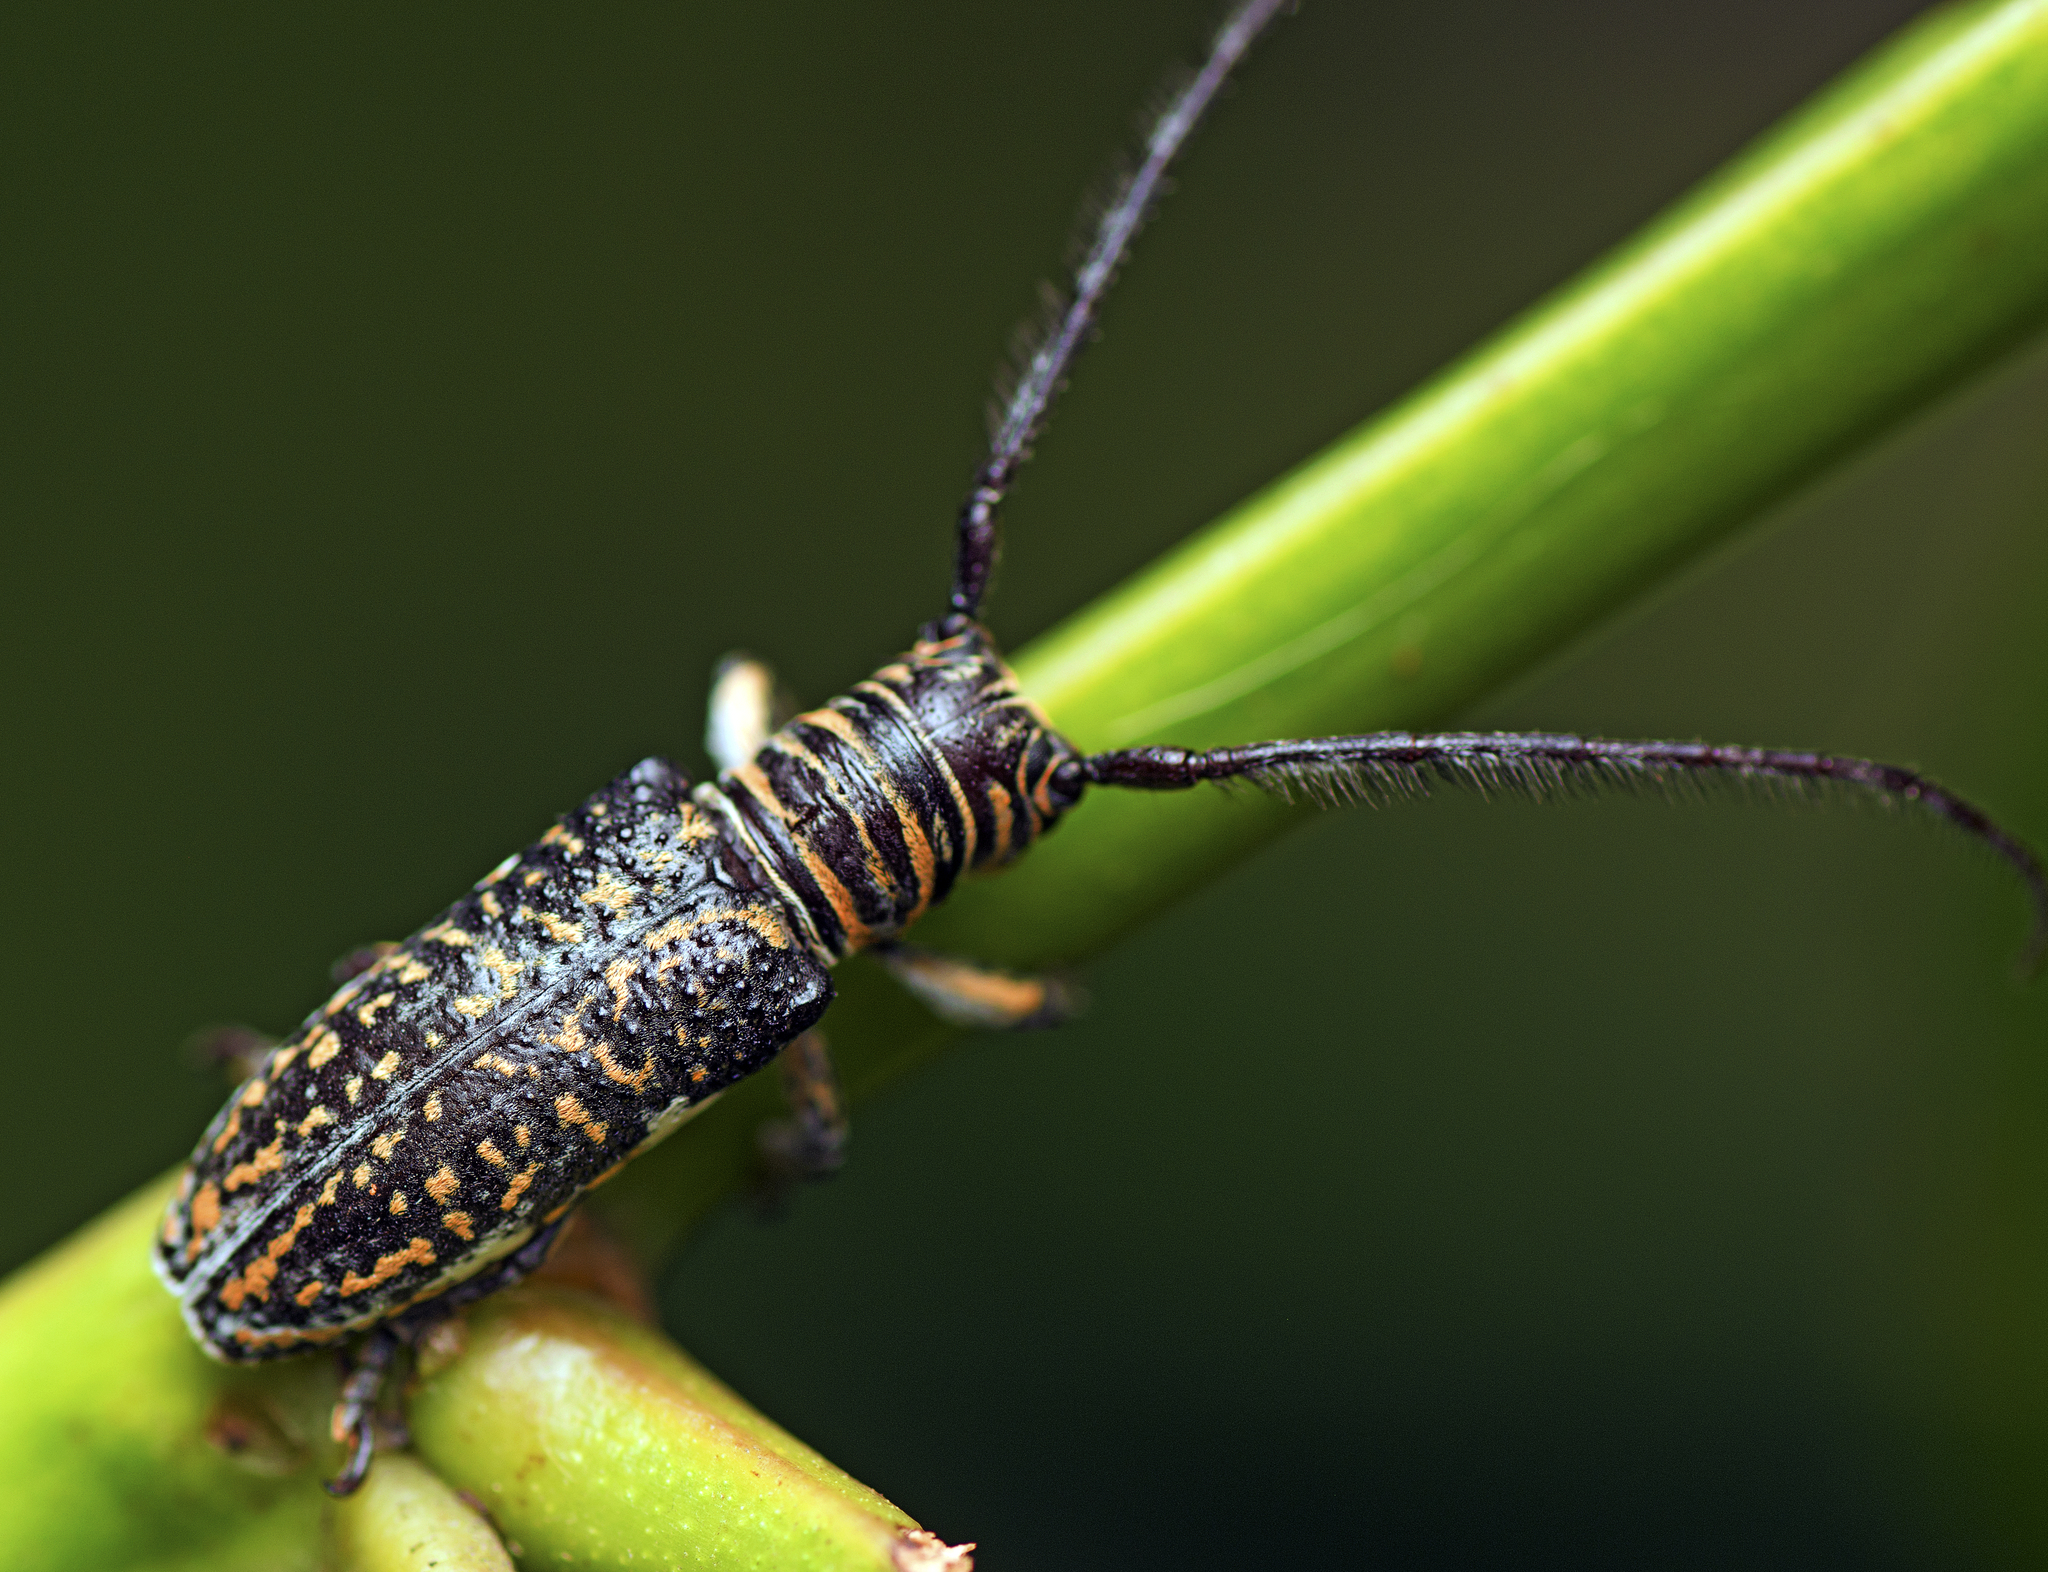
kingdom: Animalia
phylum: Arthropoda
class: Insecta
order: Coleoptera
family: Cerambycidae
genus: Rhytiphora
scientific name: Rhytiphora vestigialis
